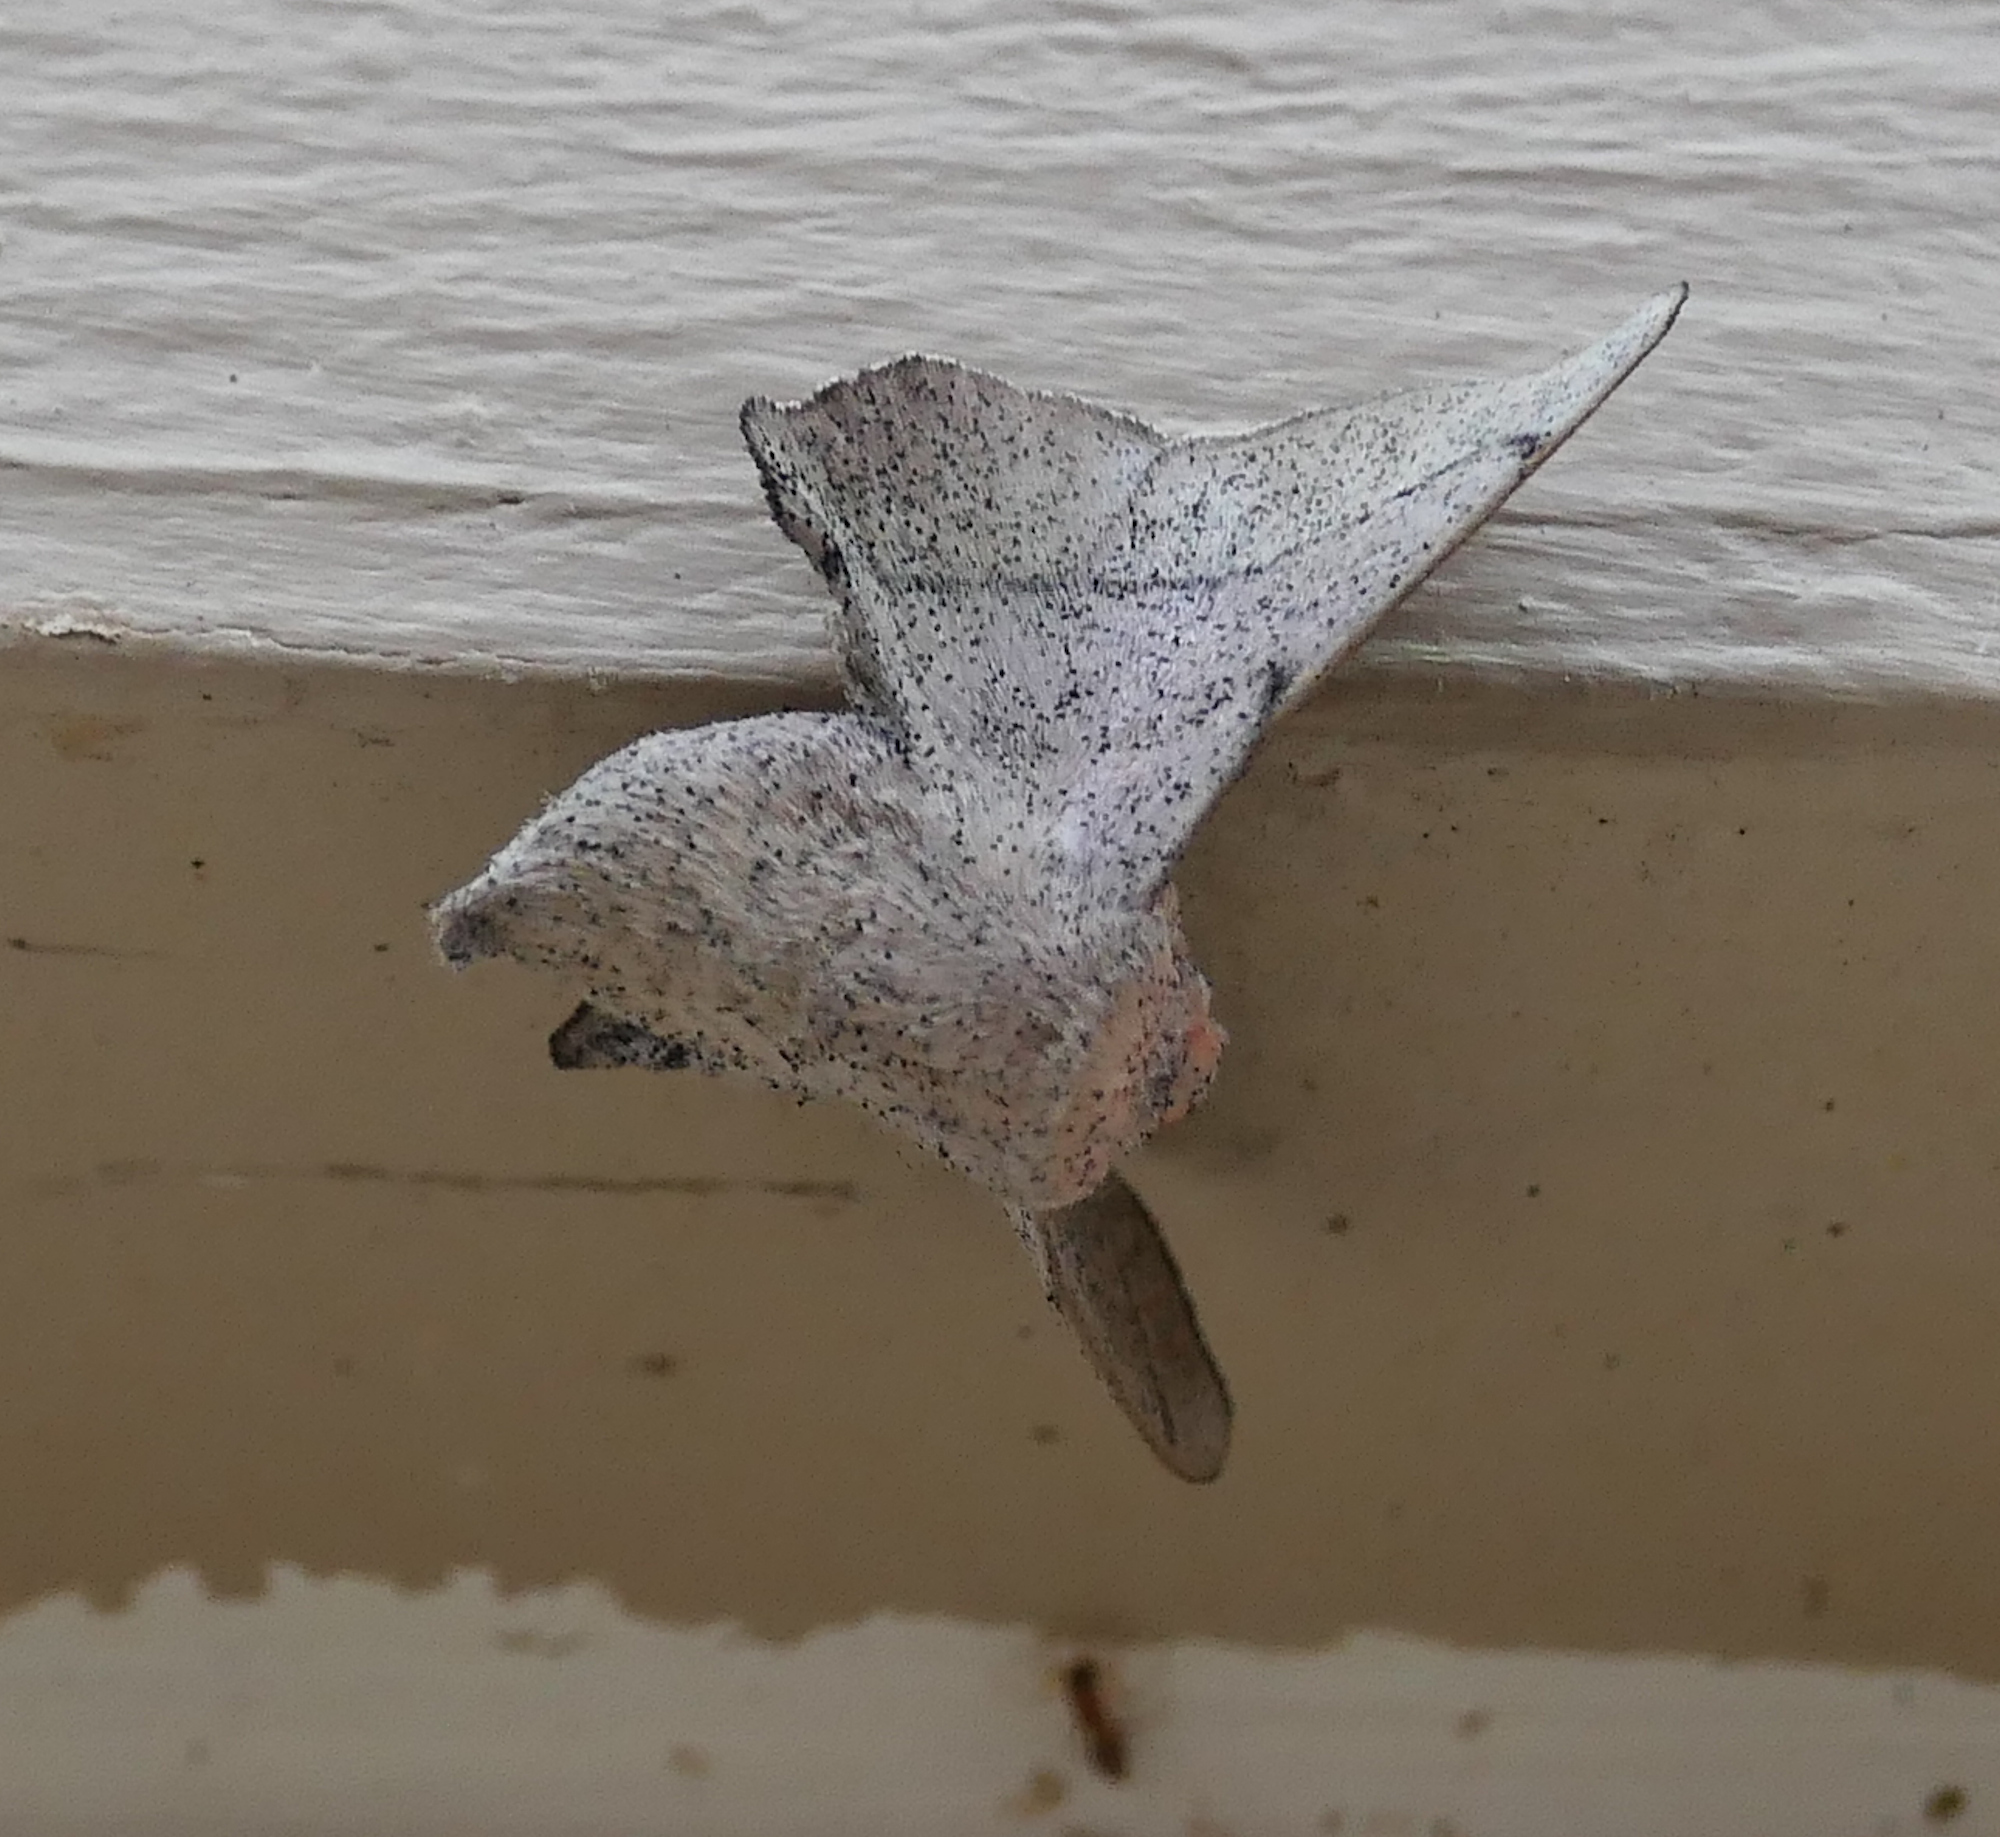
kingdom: Animalia
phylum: Arthropoda
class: Insecta
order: Lepidoptera
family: Mimallonidae
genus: Cicinnus
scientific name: Cicinnus melsheimeri
